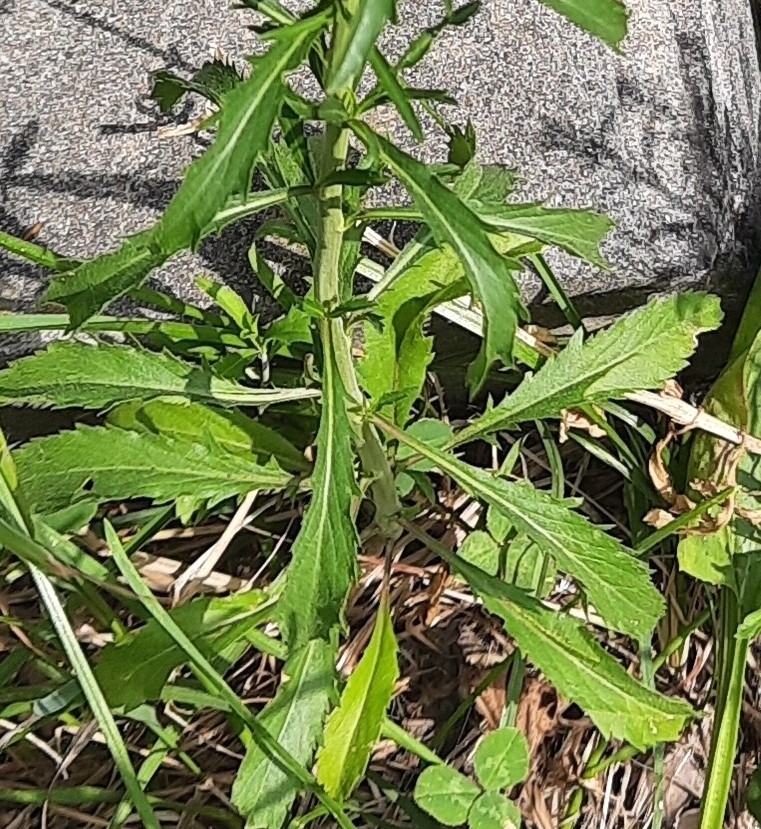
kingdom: Plantae
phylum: Tracheophyta
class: Magnoliopsida
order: Brassicales
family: Brassicaceae
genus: Lepidium
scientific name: Lepidium virginicum
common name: Least pepperwort
